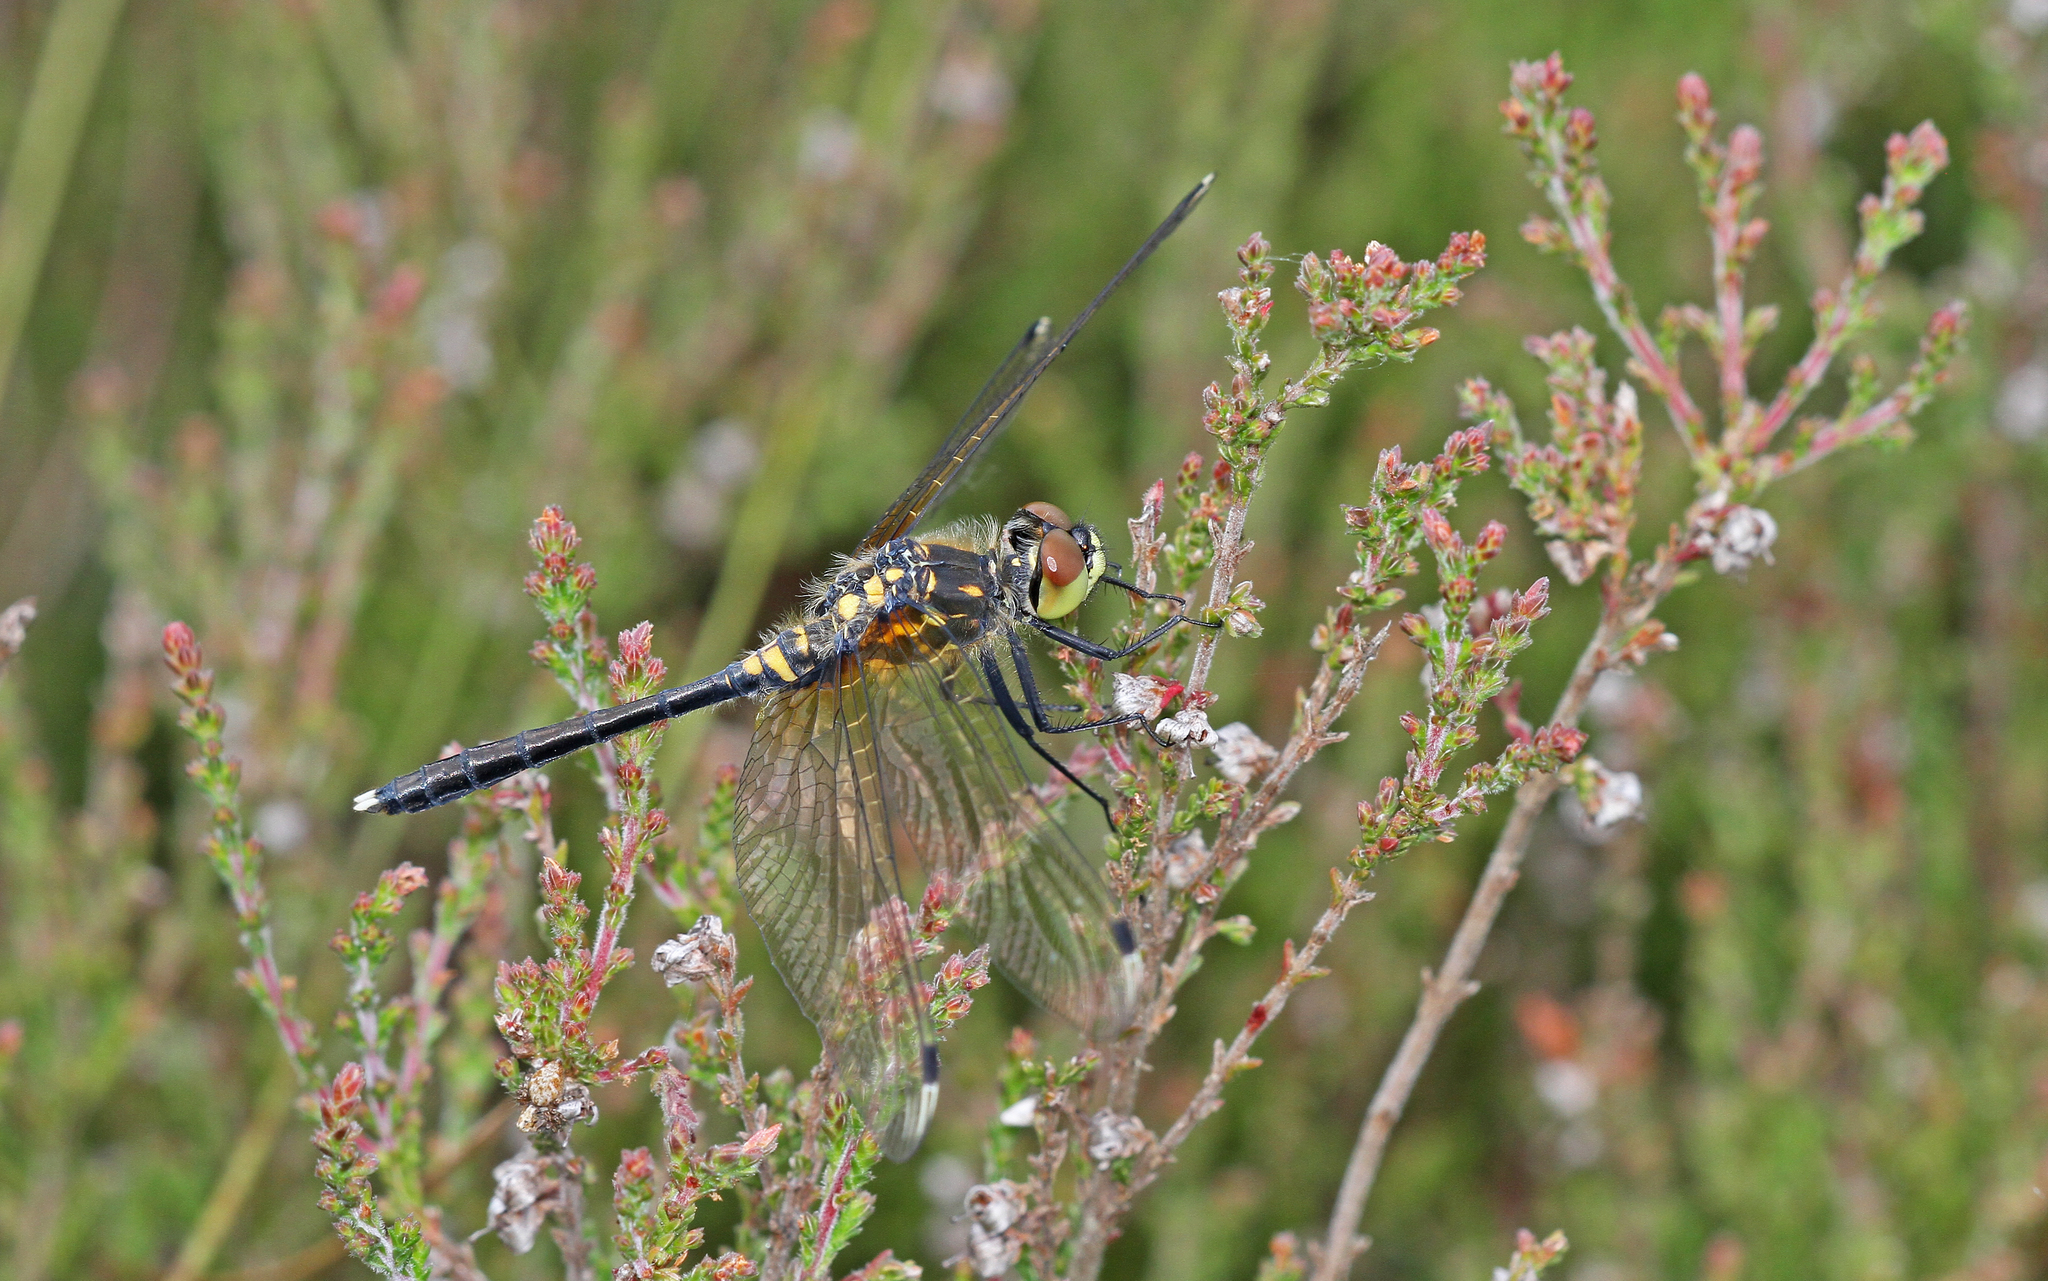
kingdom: Animalia
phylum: Arthropoda
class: Insecta
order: Odonata
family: Libellulidae
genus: Leucorrhinia
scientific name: Leucorrhinia albifrons
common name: Dark whiteface
